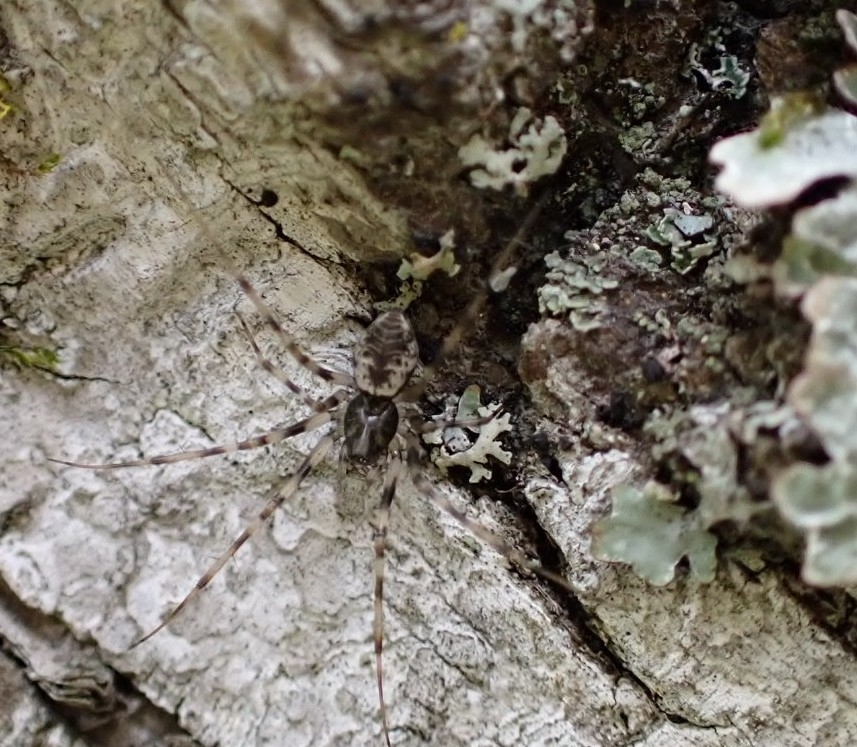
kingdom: Animalia
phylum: Arthropoda
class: Arachnida
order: Araneae
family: Linyphiidae
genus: Drapetisca
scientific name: Drapetisca socialis
